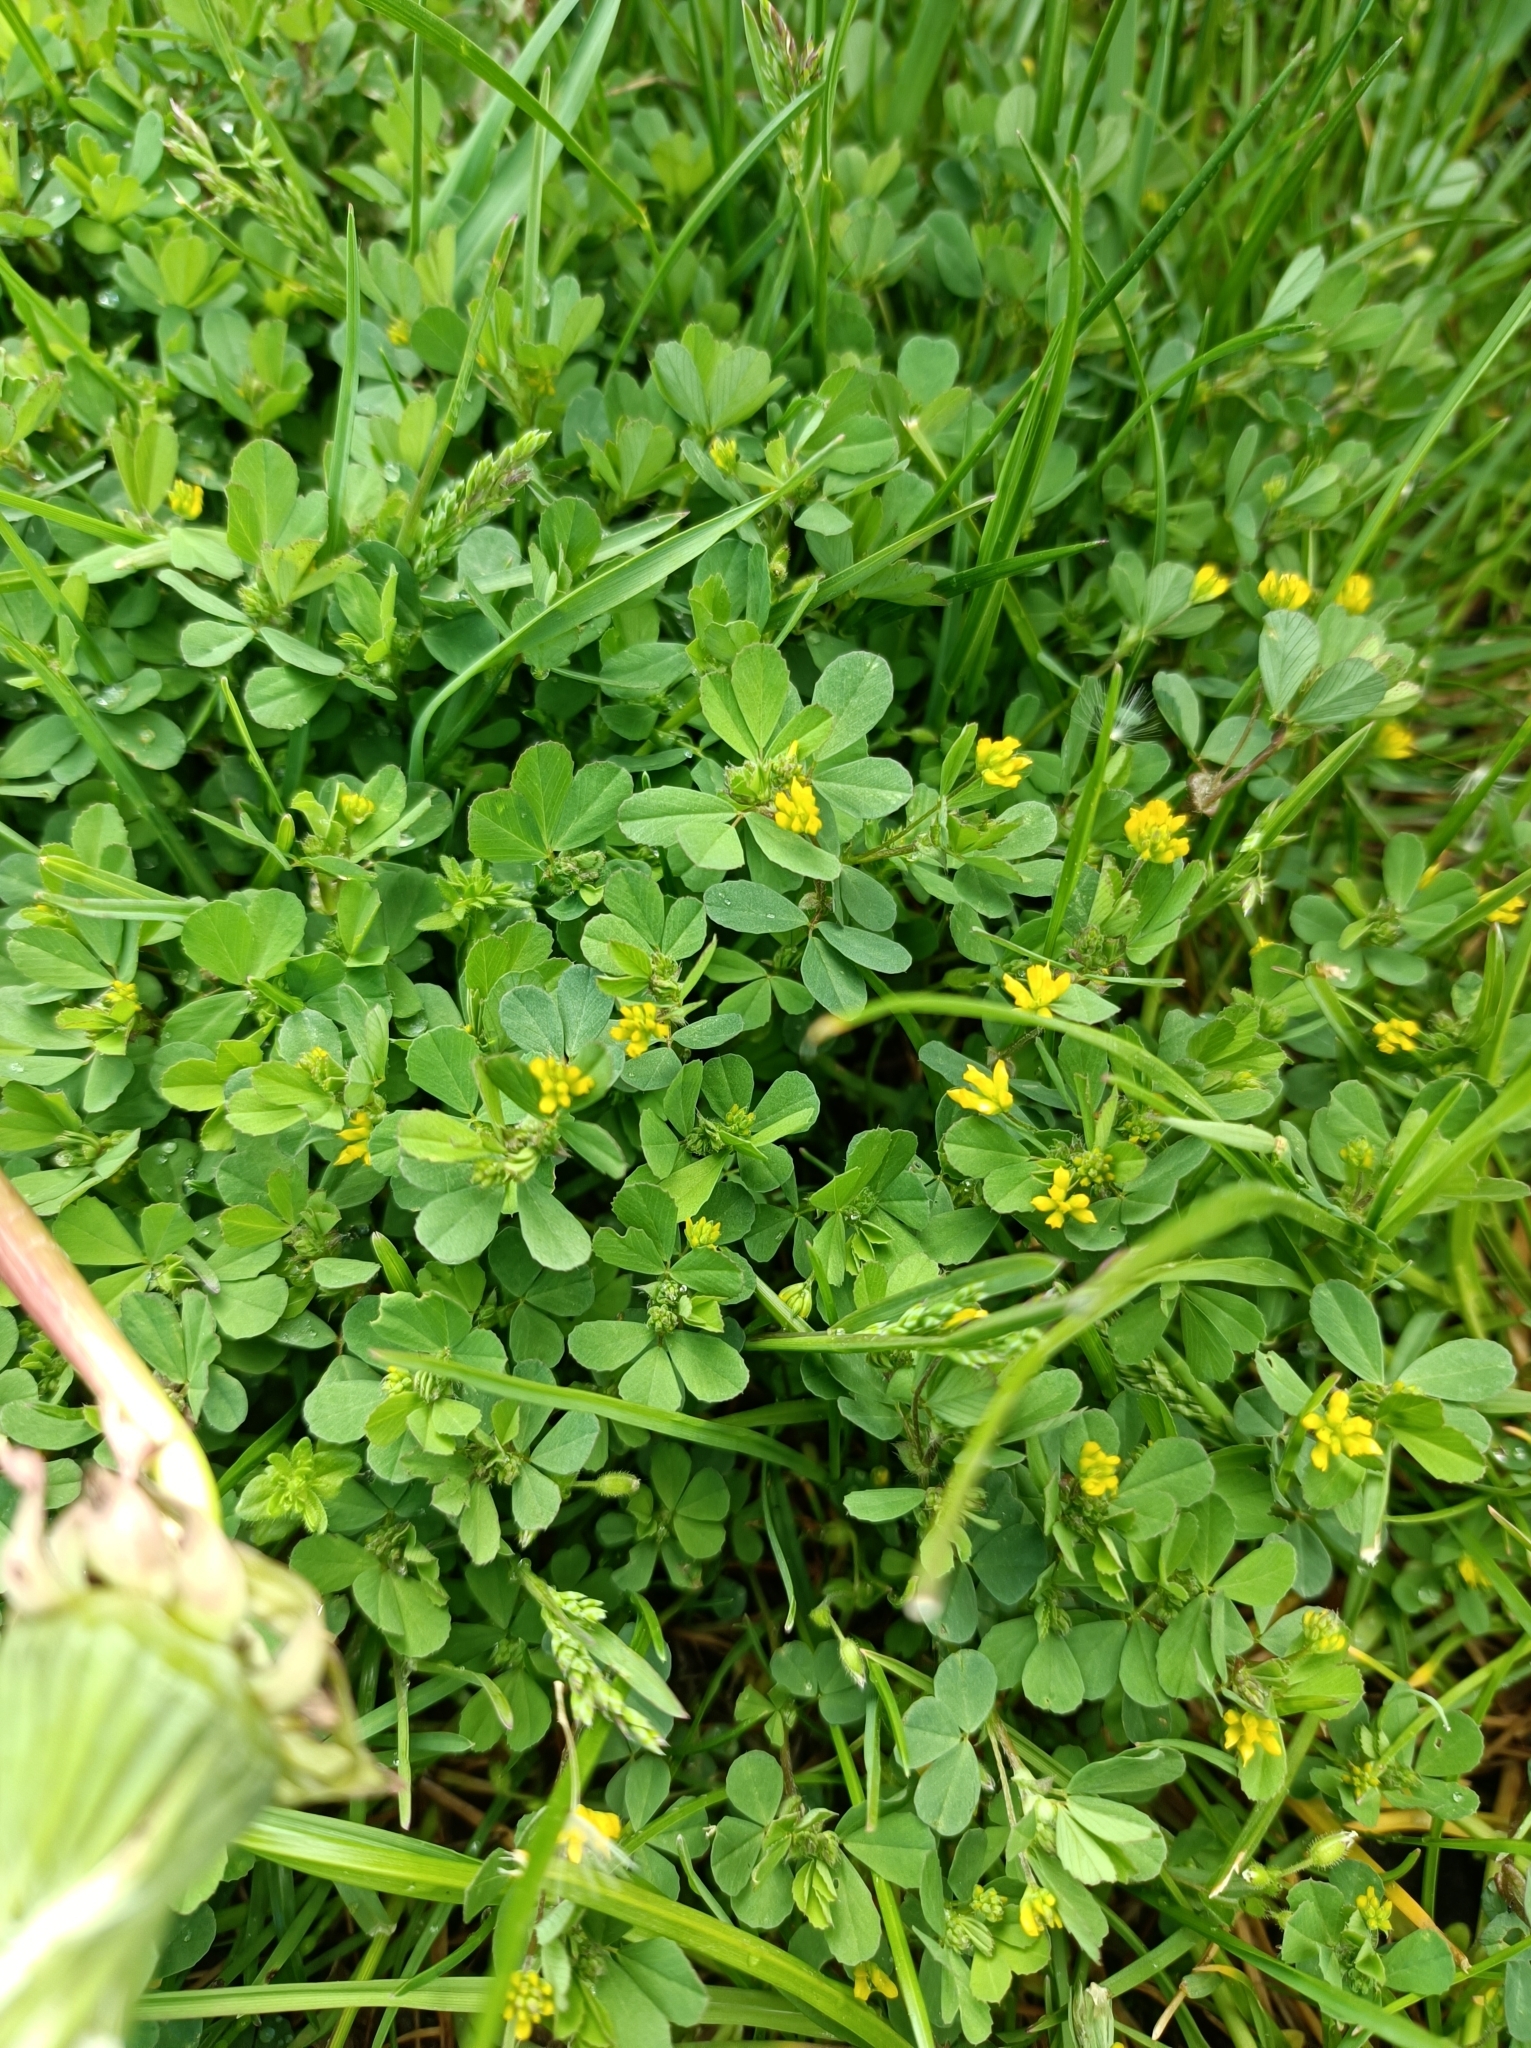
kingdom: Plantae
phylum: Tracheophyta
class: Magnoliopsida
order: Fabales
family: Fabaceae
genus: Trifolium
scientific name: Trifolium dubium
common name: Suckling clover
